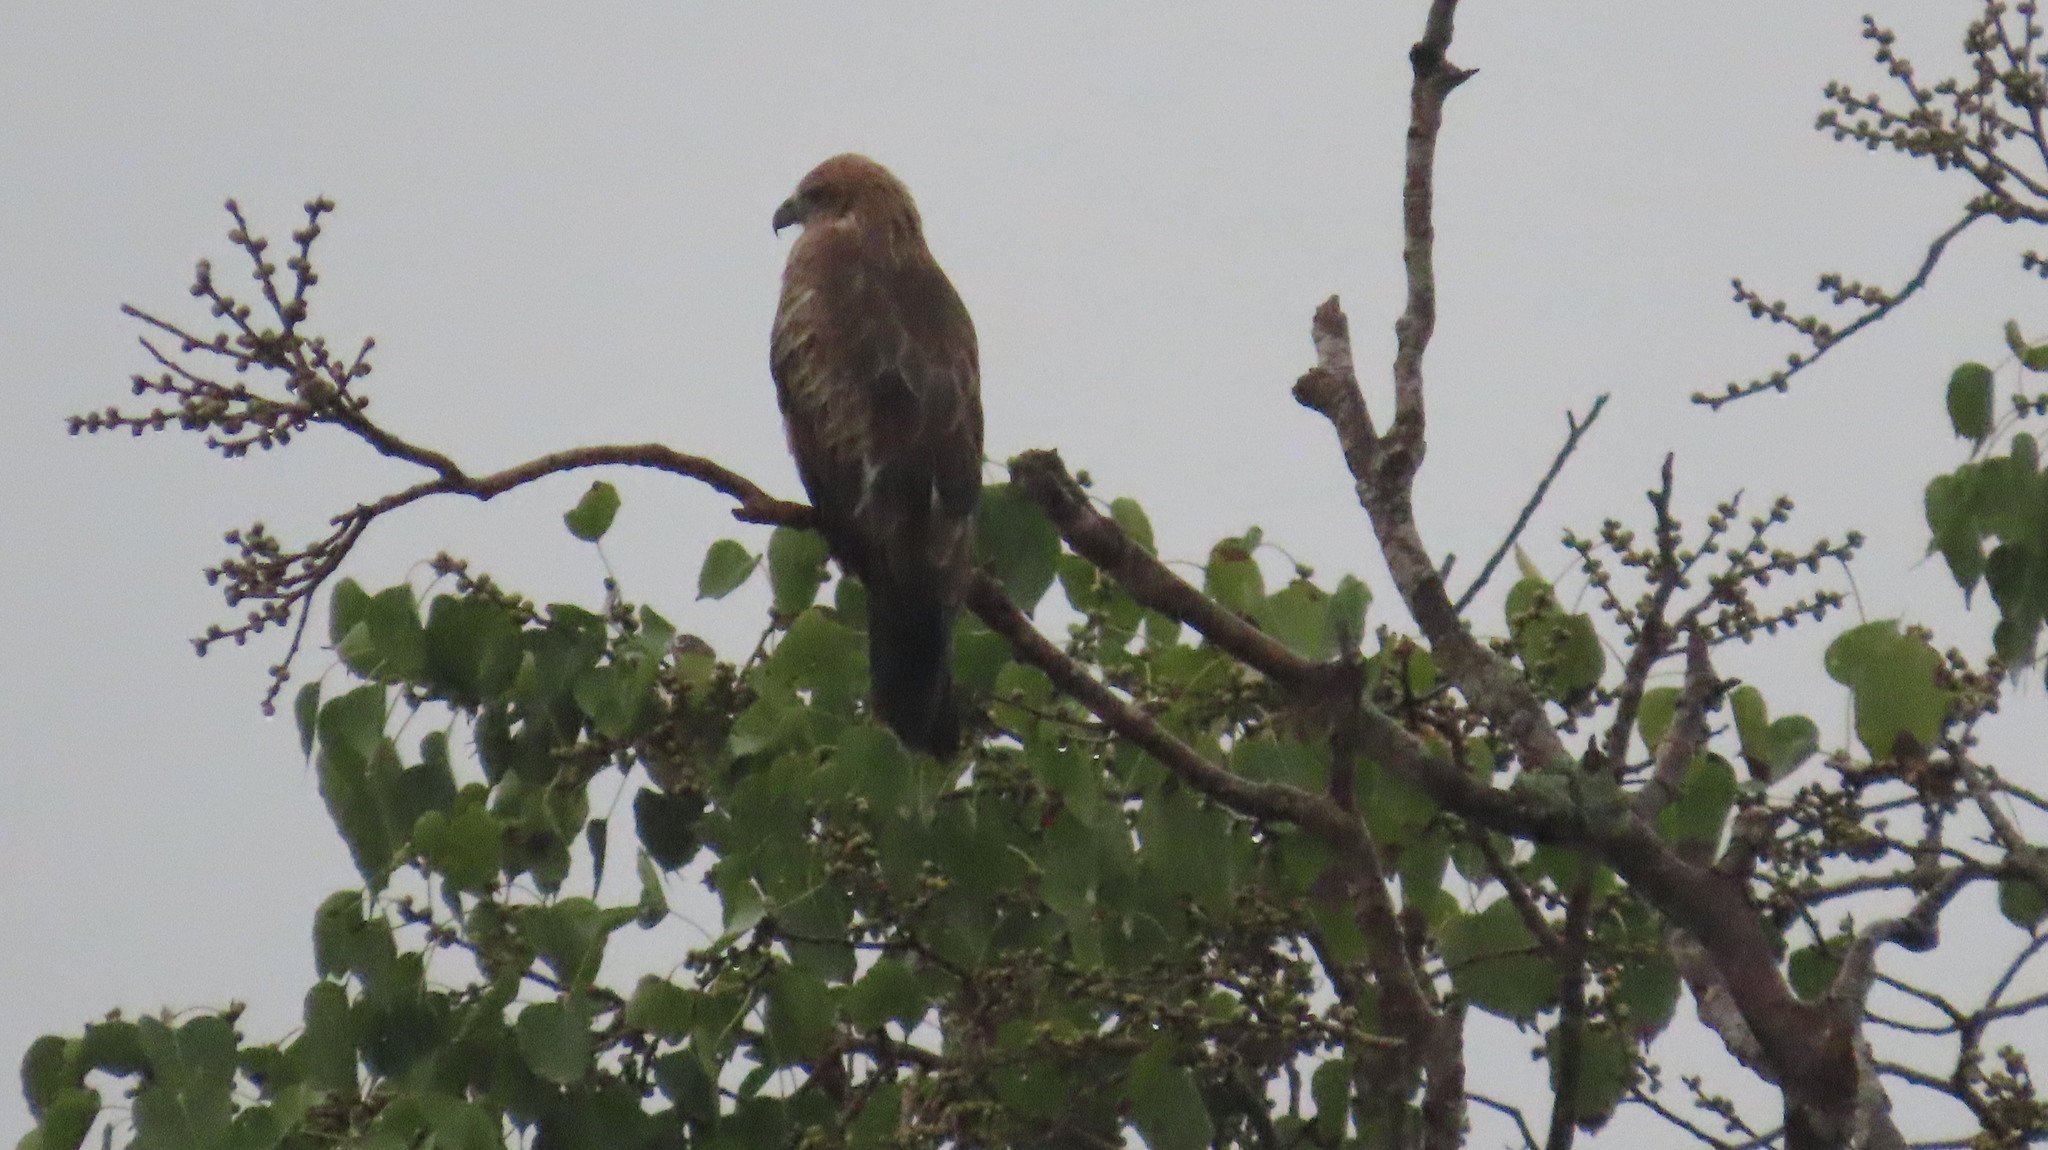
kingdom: Animalia
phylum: Chordata
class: Aves
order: Accipitriformes
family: Accipitridae
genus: Haliastur
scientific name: Haliastur indus
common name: Brahminy kite
